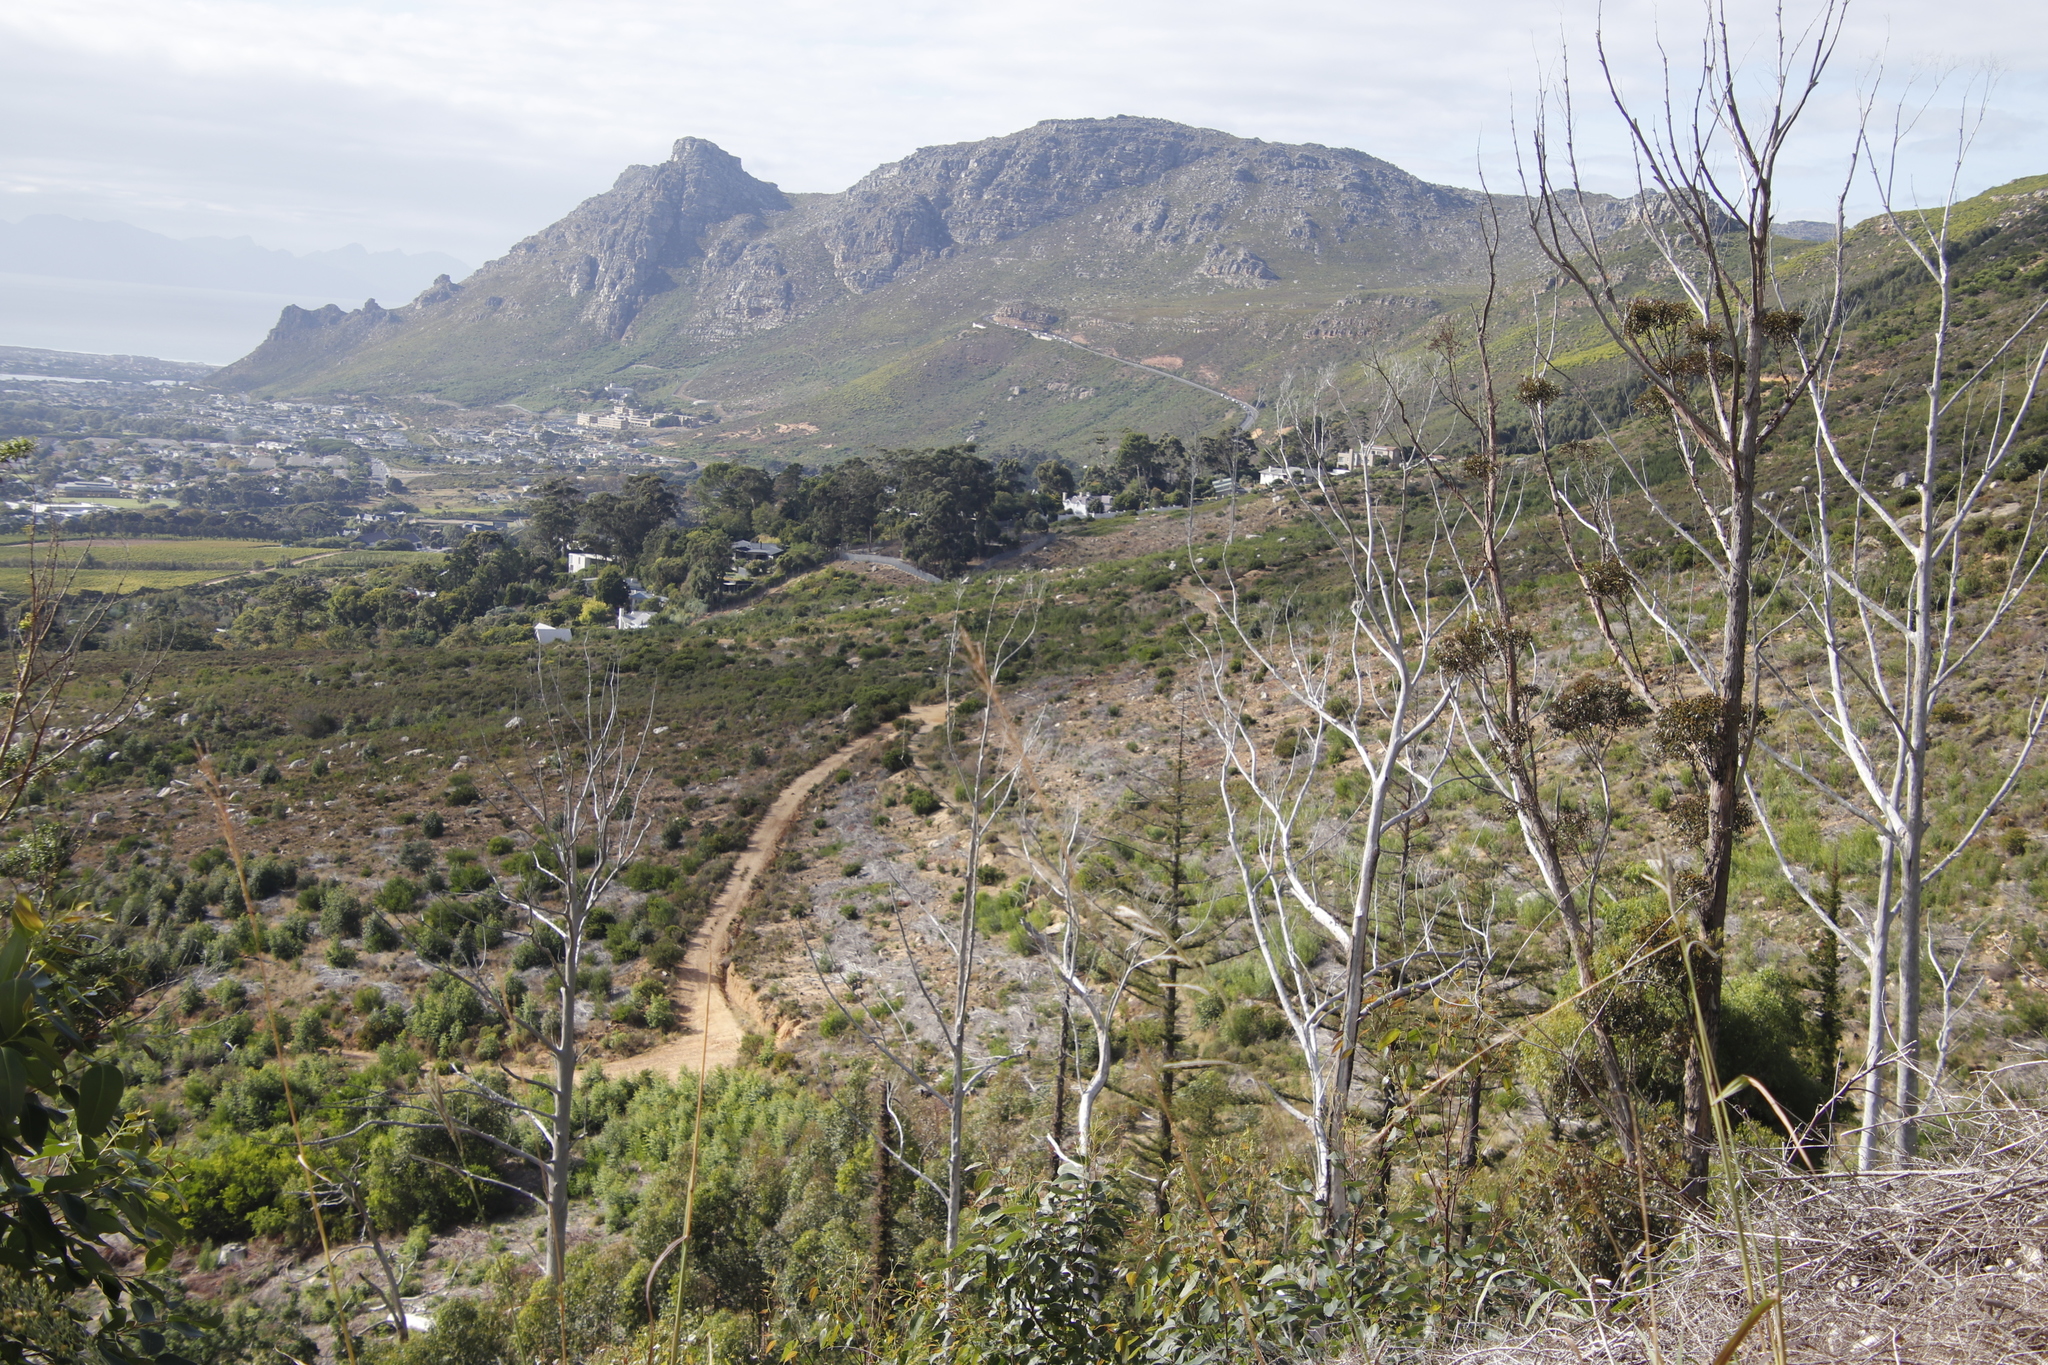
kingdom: Plantae
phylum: Tracheophyta
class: Magnoliopsida
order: Fabales
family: Fabaceae
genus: Acacia
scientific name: Acacia melanoxylon
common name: Blackwood
